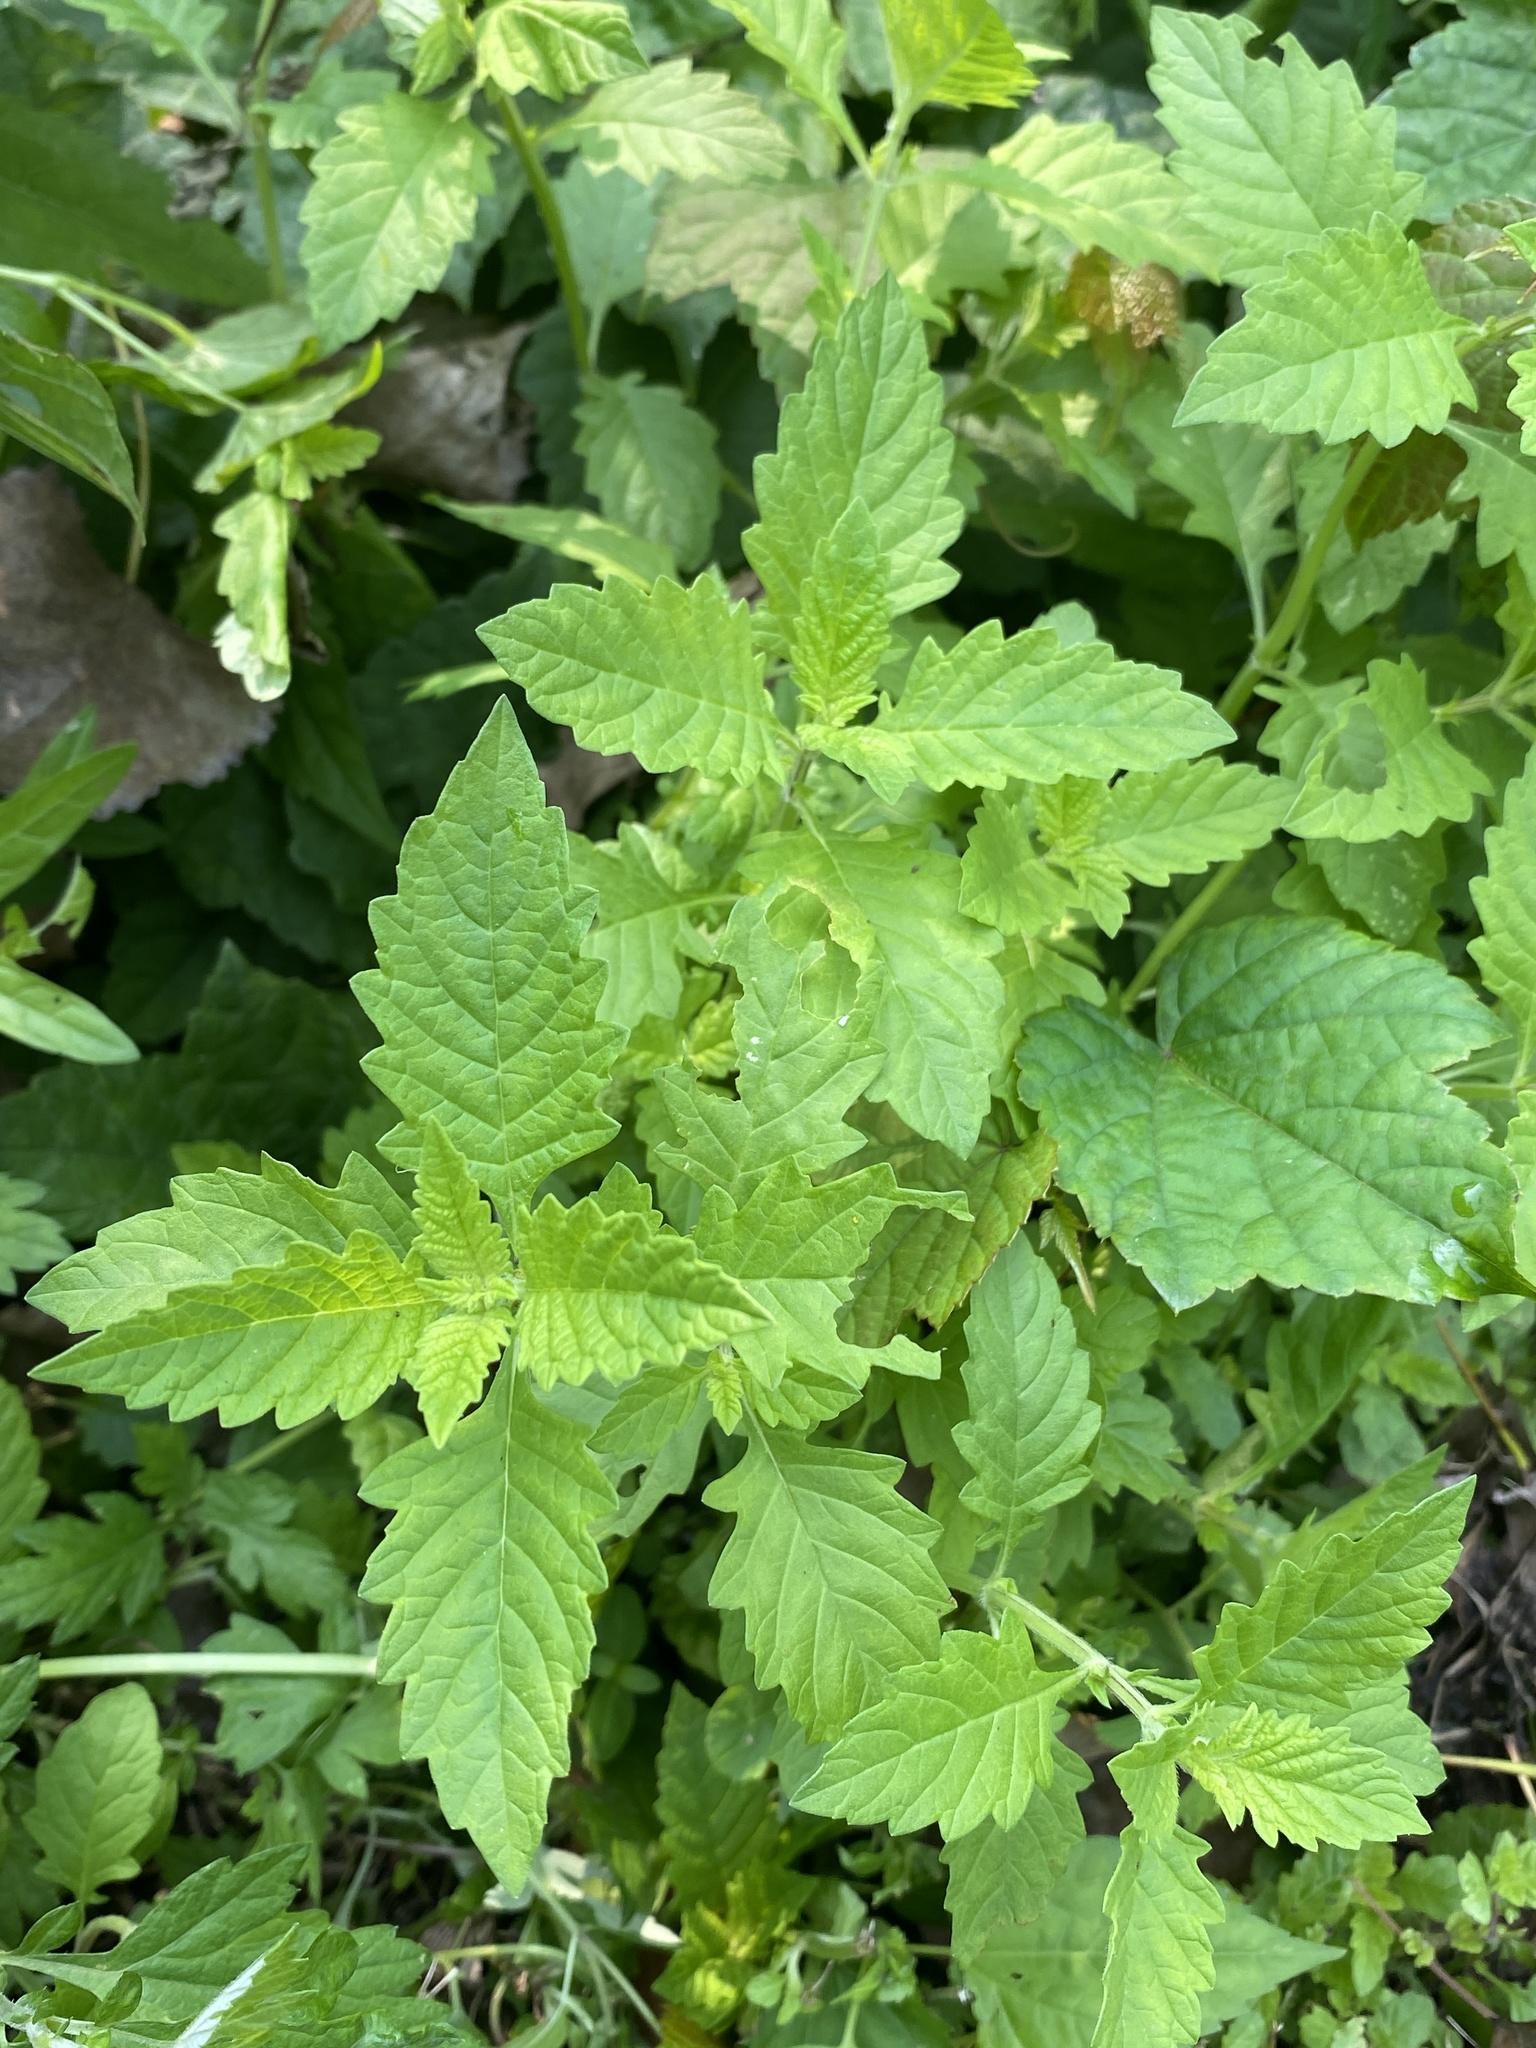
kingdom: Plantae
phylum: Tracheophyta
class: Magnoliopsida
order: Lamiales
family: Lamiaceae
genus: Lycopus
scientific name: Lycopus europaeus
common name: European bugleweed
